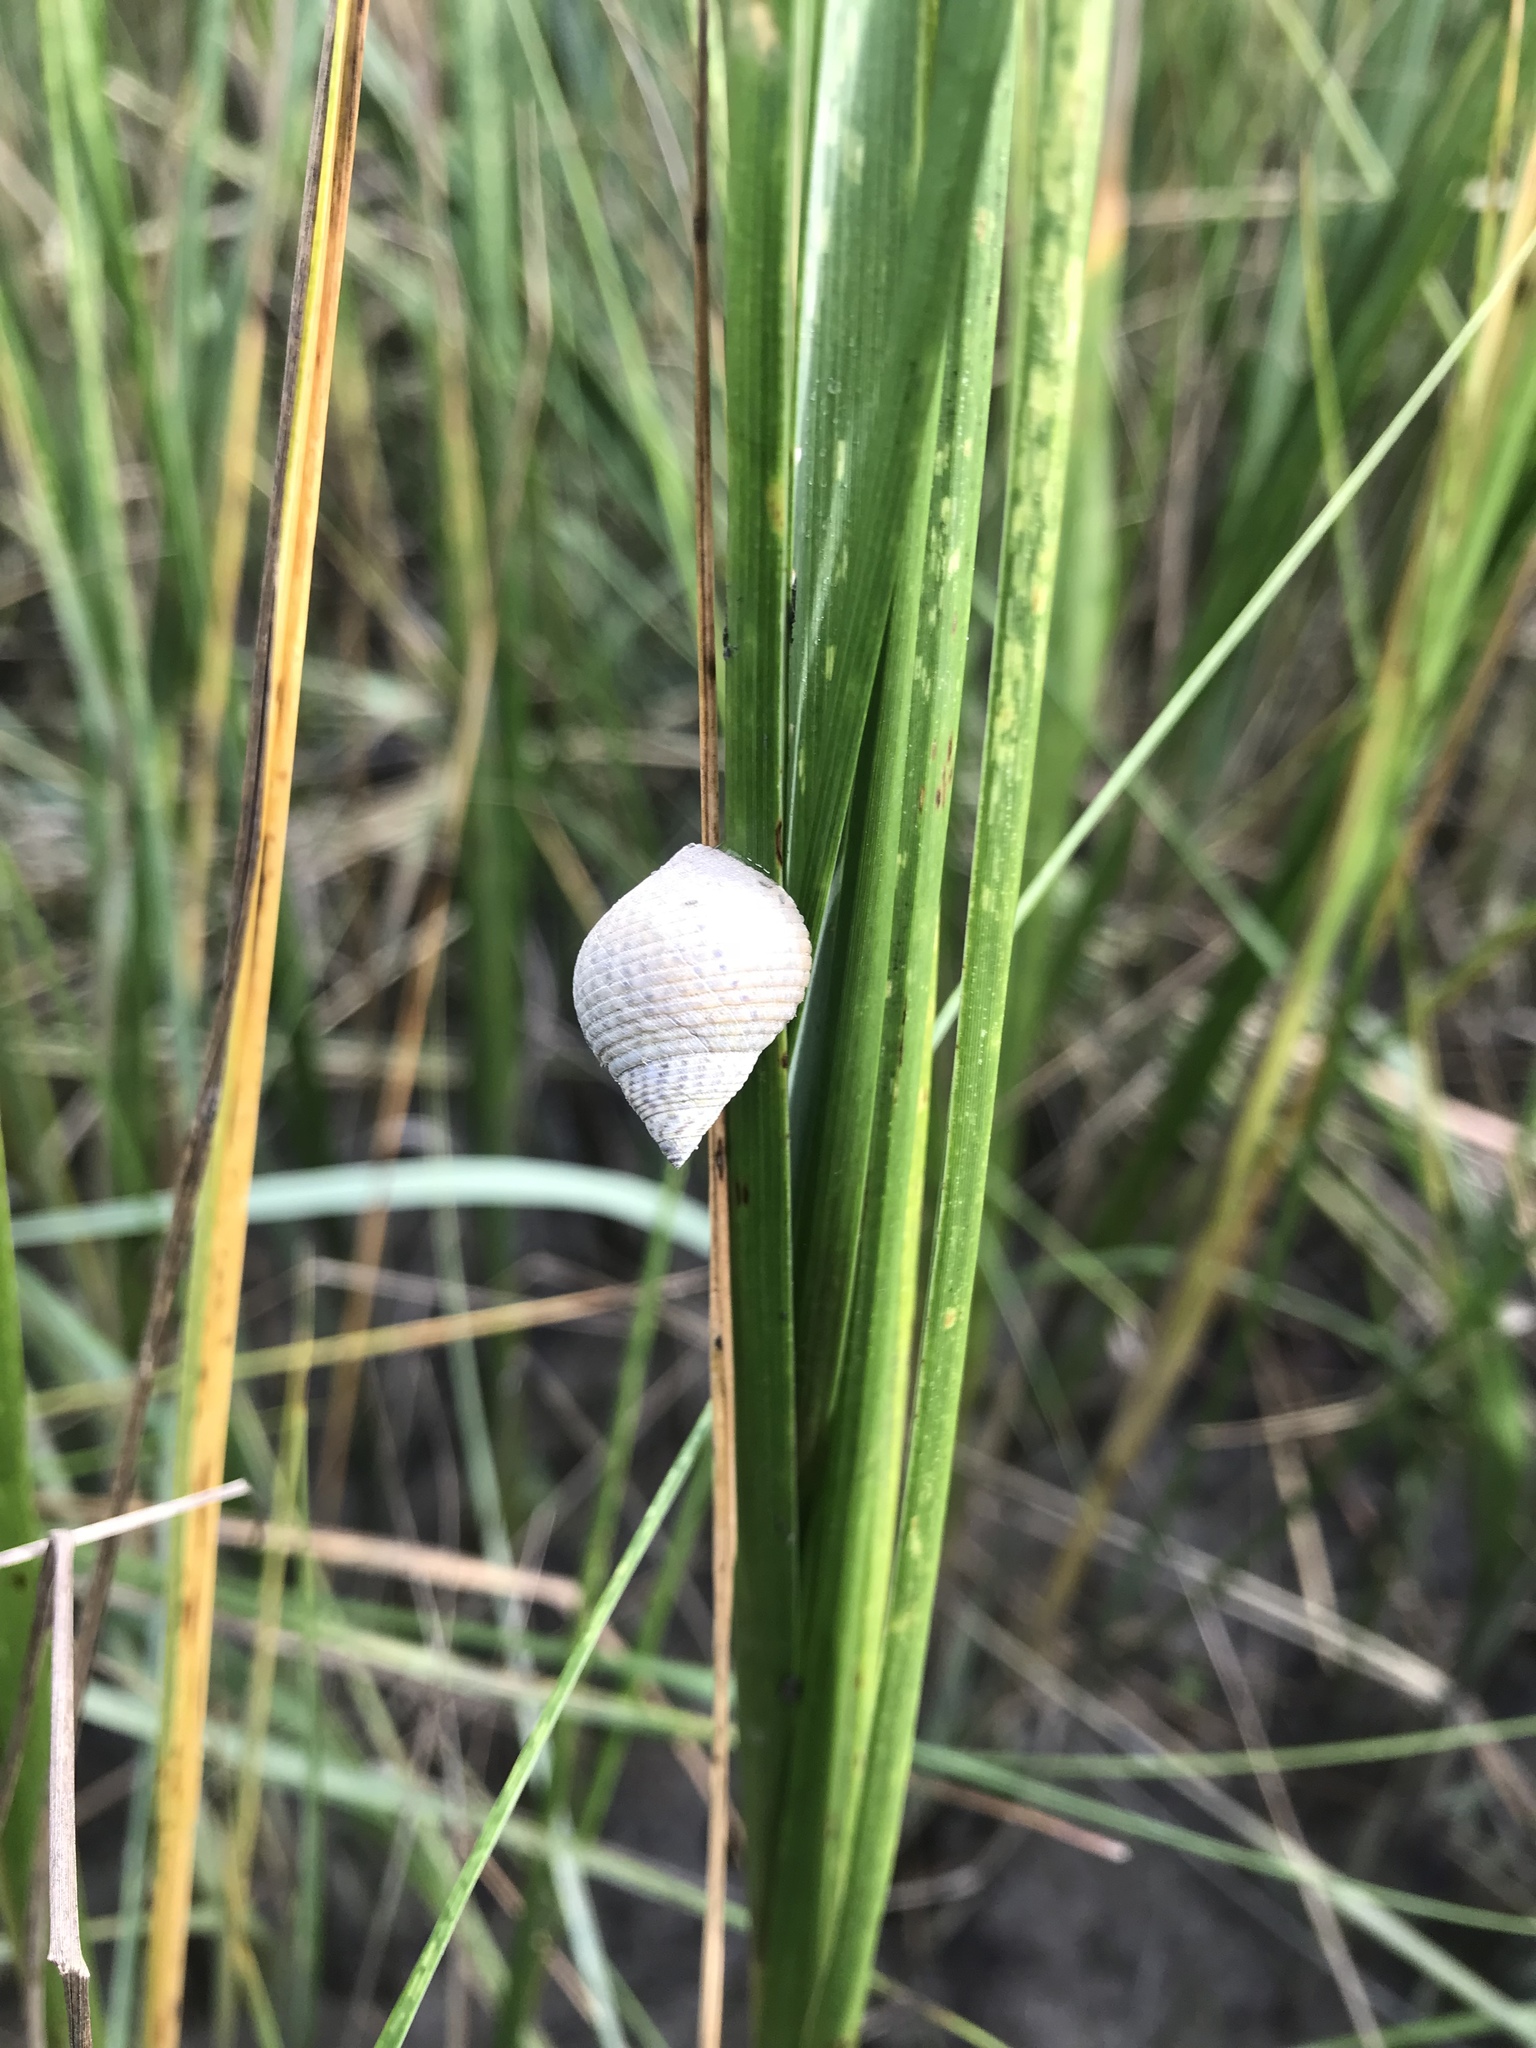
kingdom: Animalia
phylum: Mollusca
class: Gastropoda
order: Littorinimorpha
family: Littorinidae
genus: Littoraria
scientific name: Littoraria irrorata
